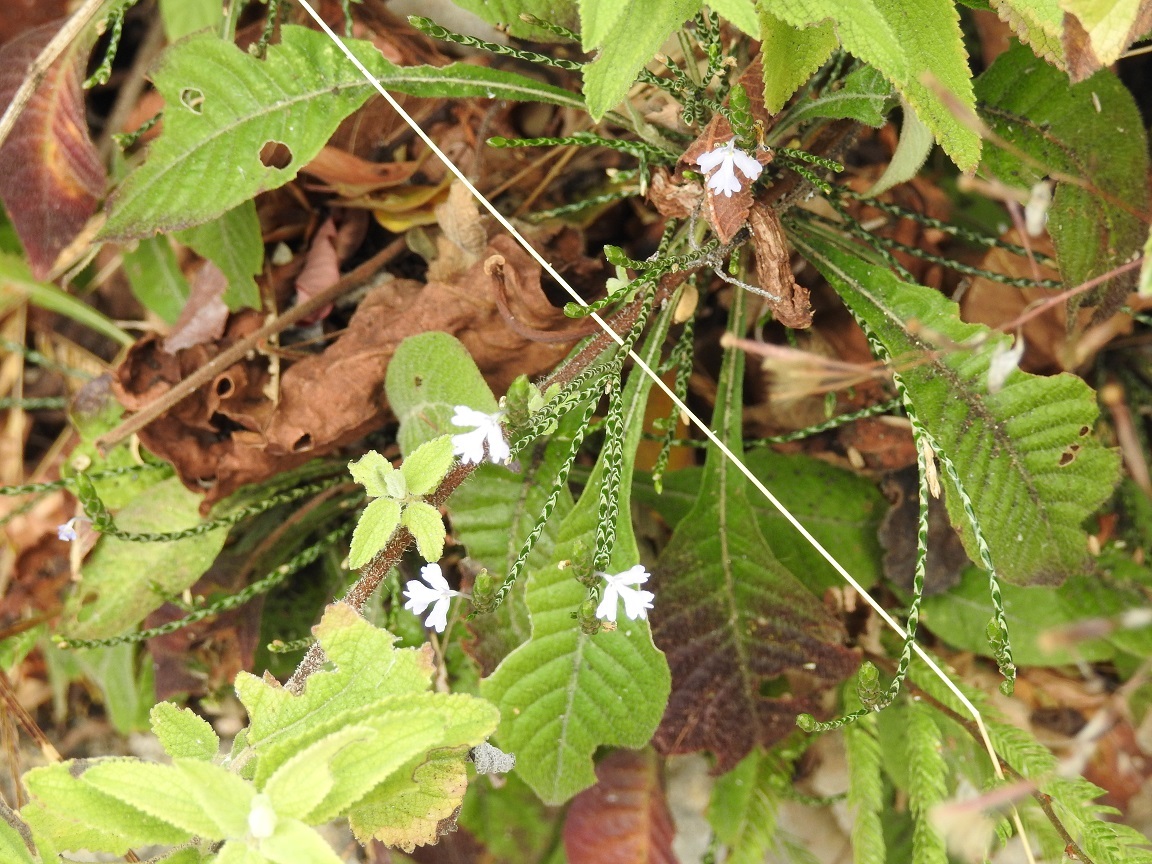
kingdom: Plantae
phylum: Tracheophyta
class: Magnoliopsida
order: Lamiales
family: Acanthaceae
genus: Elytraria
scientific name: Elytraria imbricata
